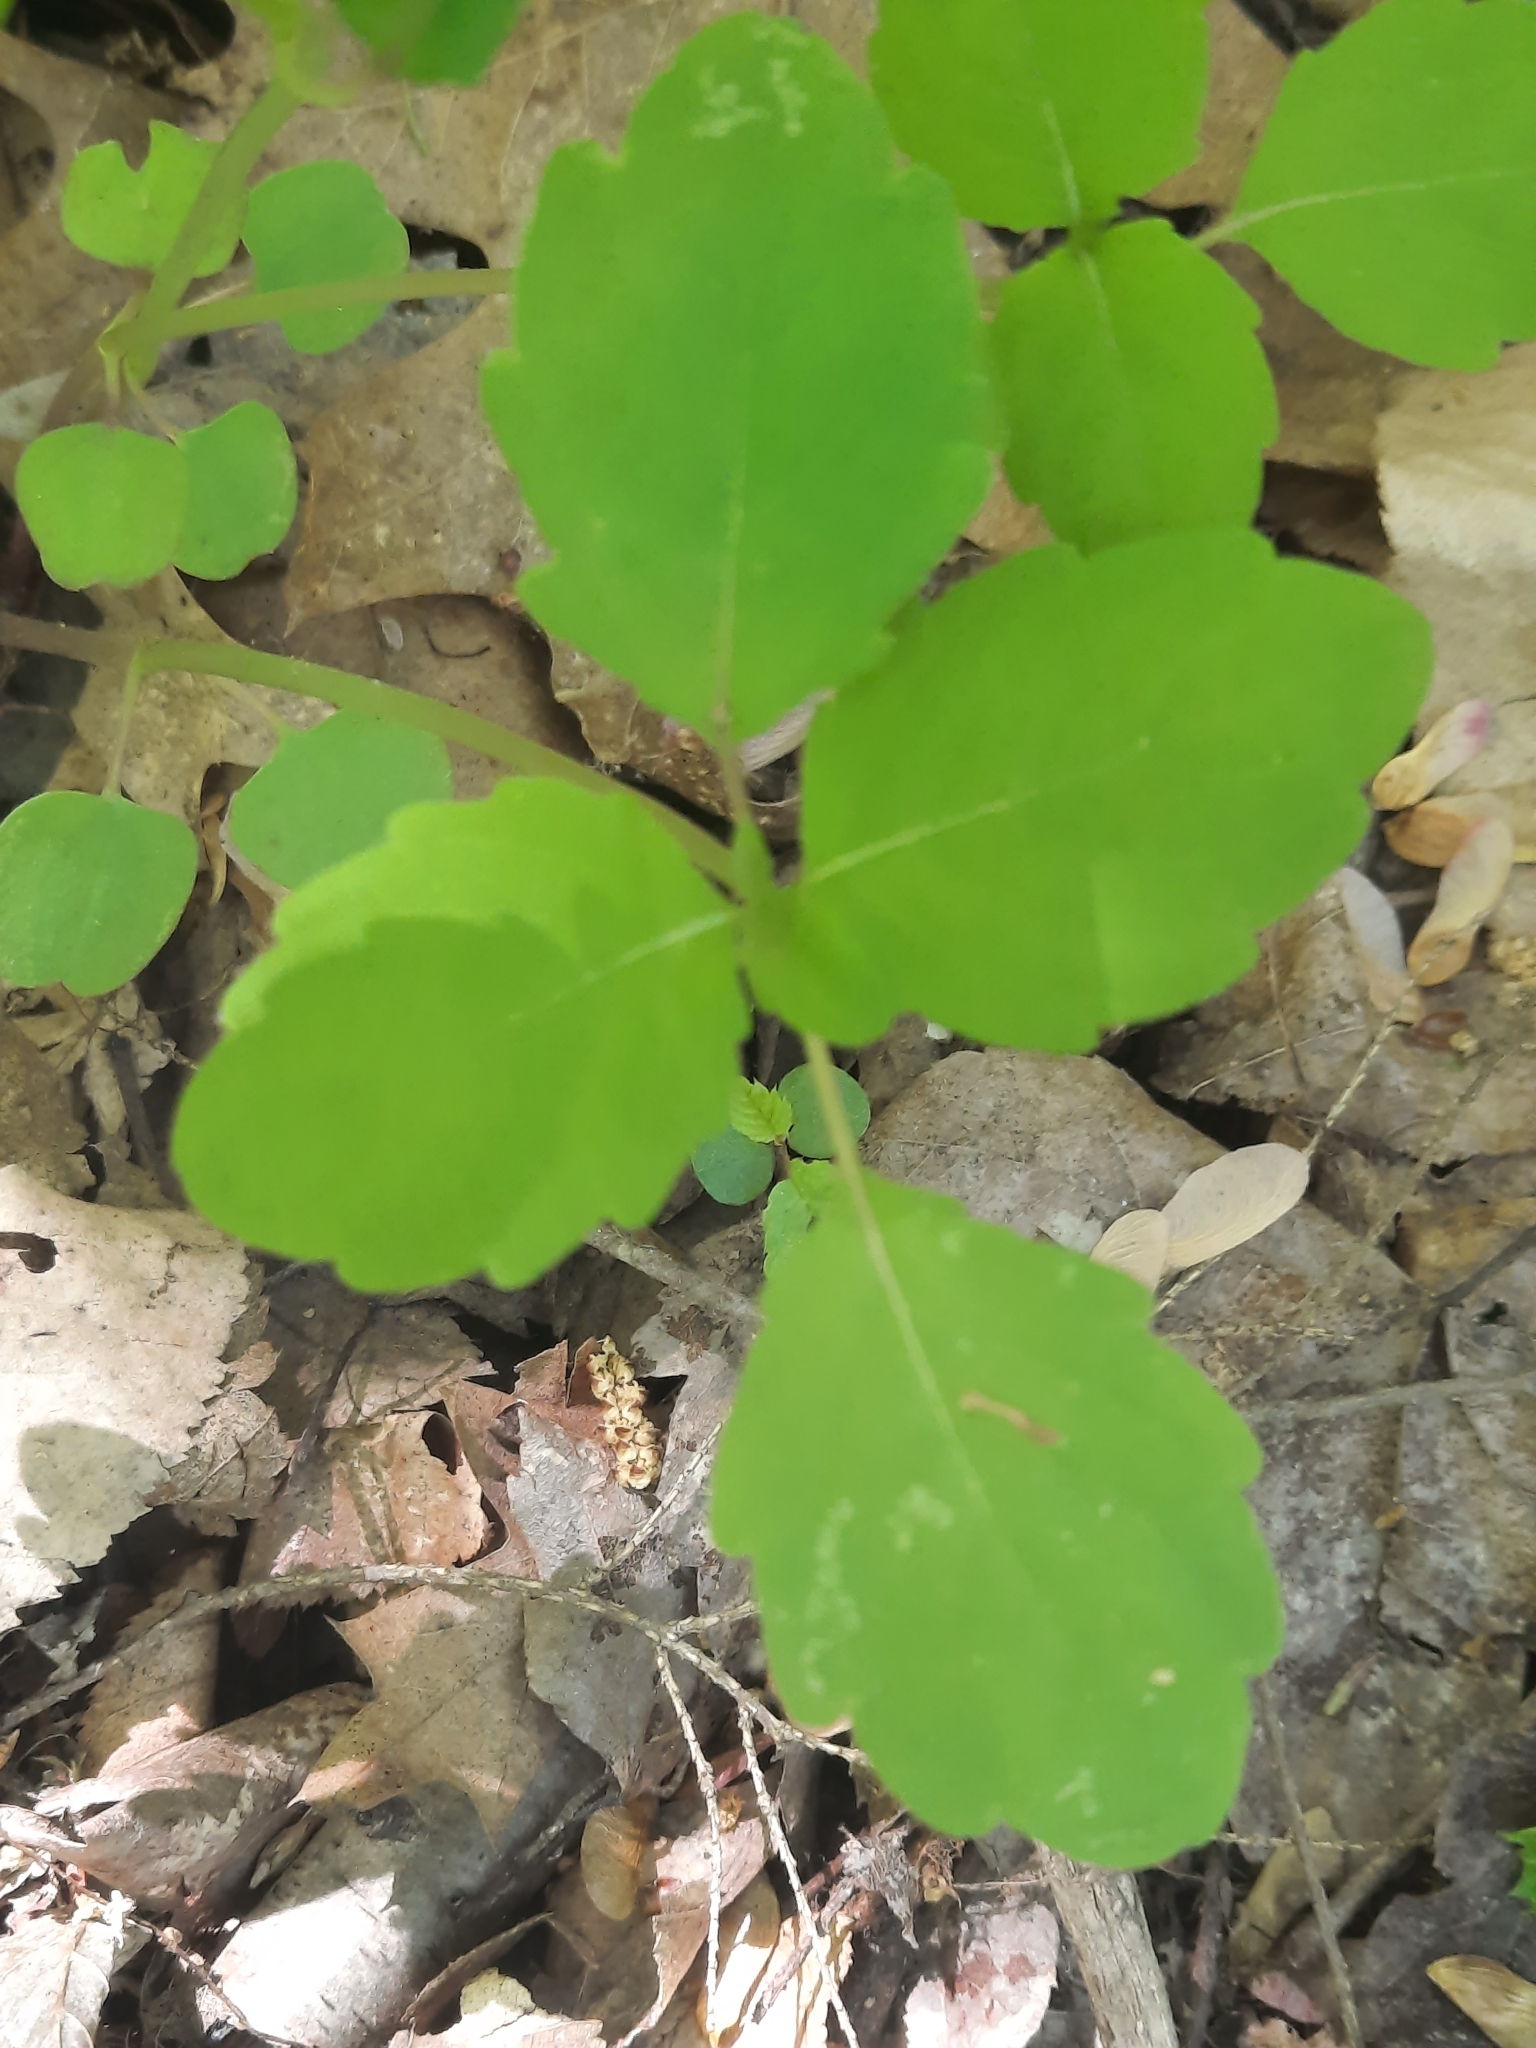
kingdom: Plantae
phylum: Tracheophyta
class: Magnoliopsida
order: Ericales
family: Balsaminaceae
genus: Impatiens
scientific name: Impatiens
